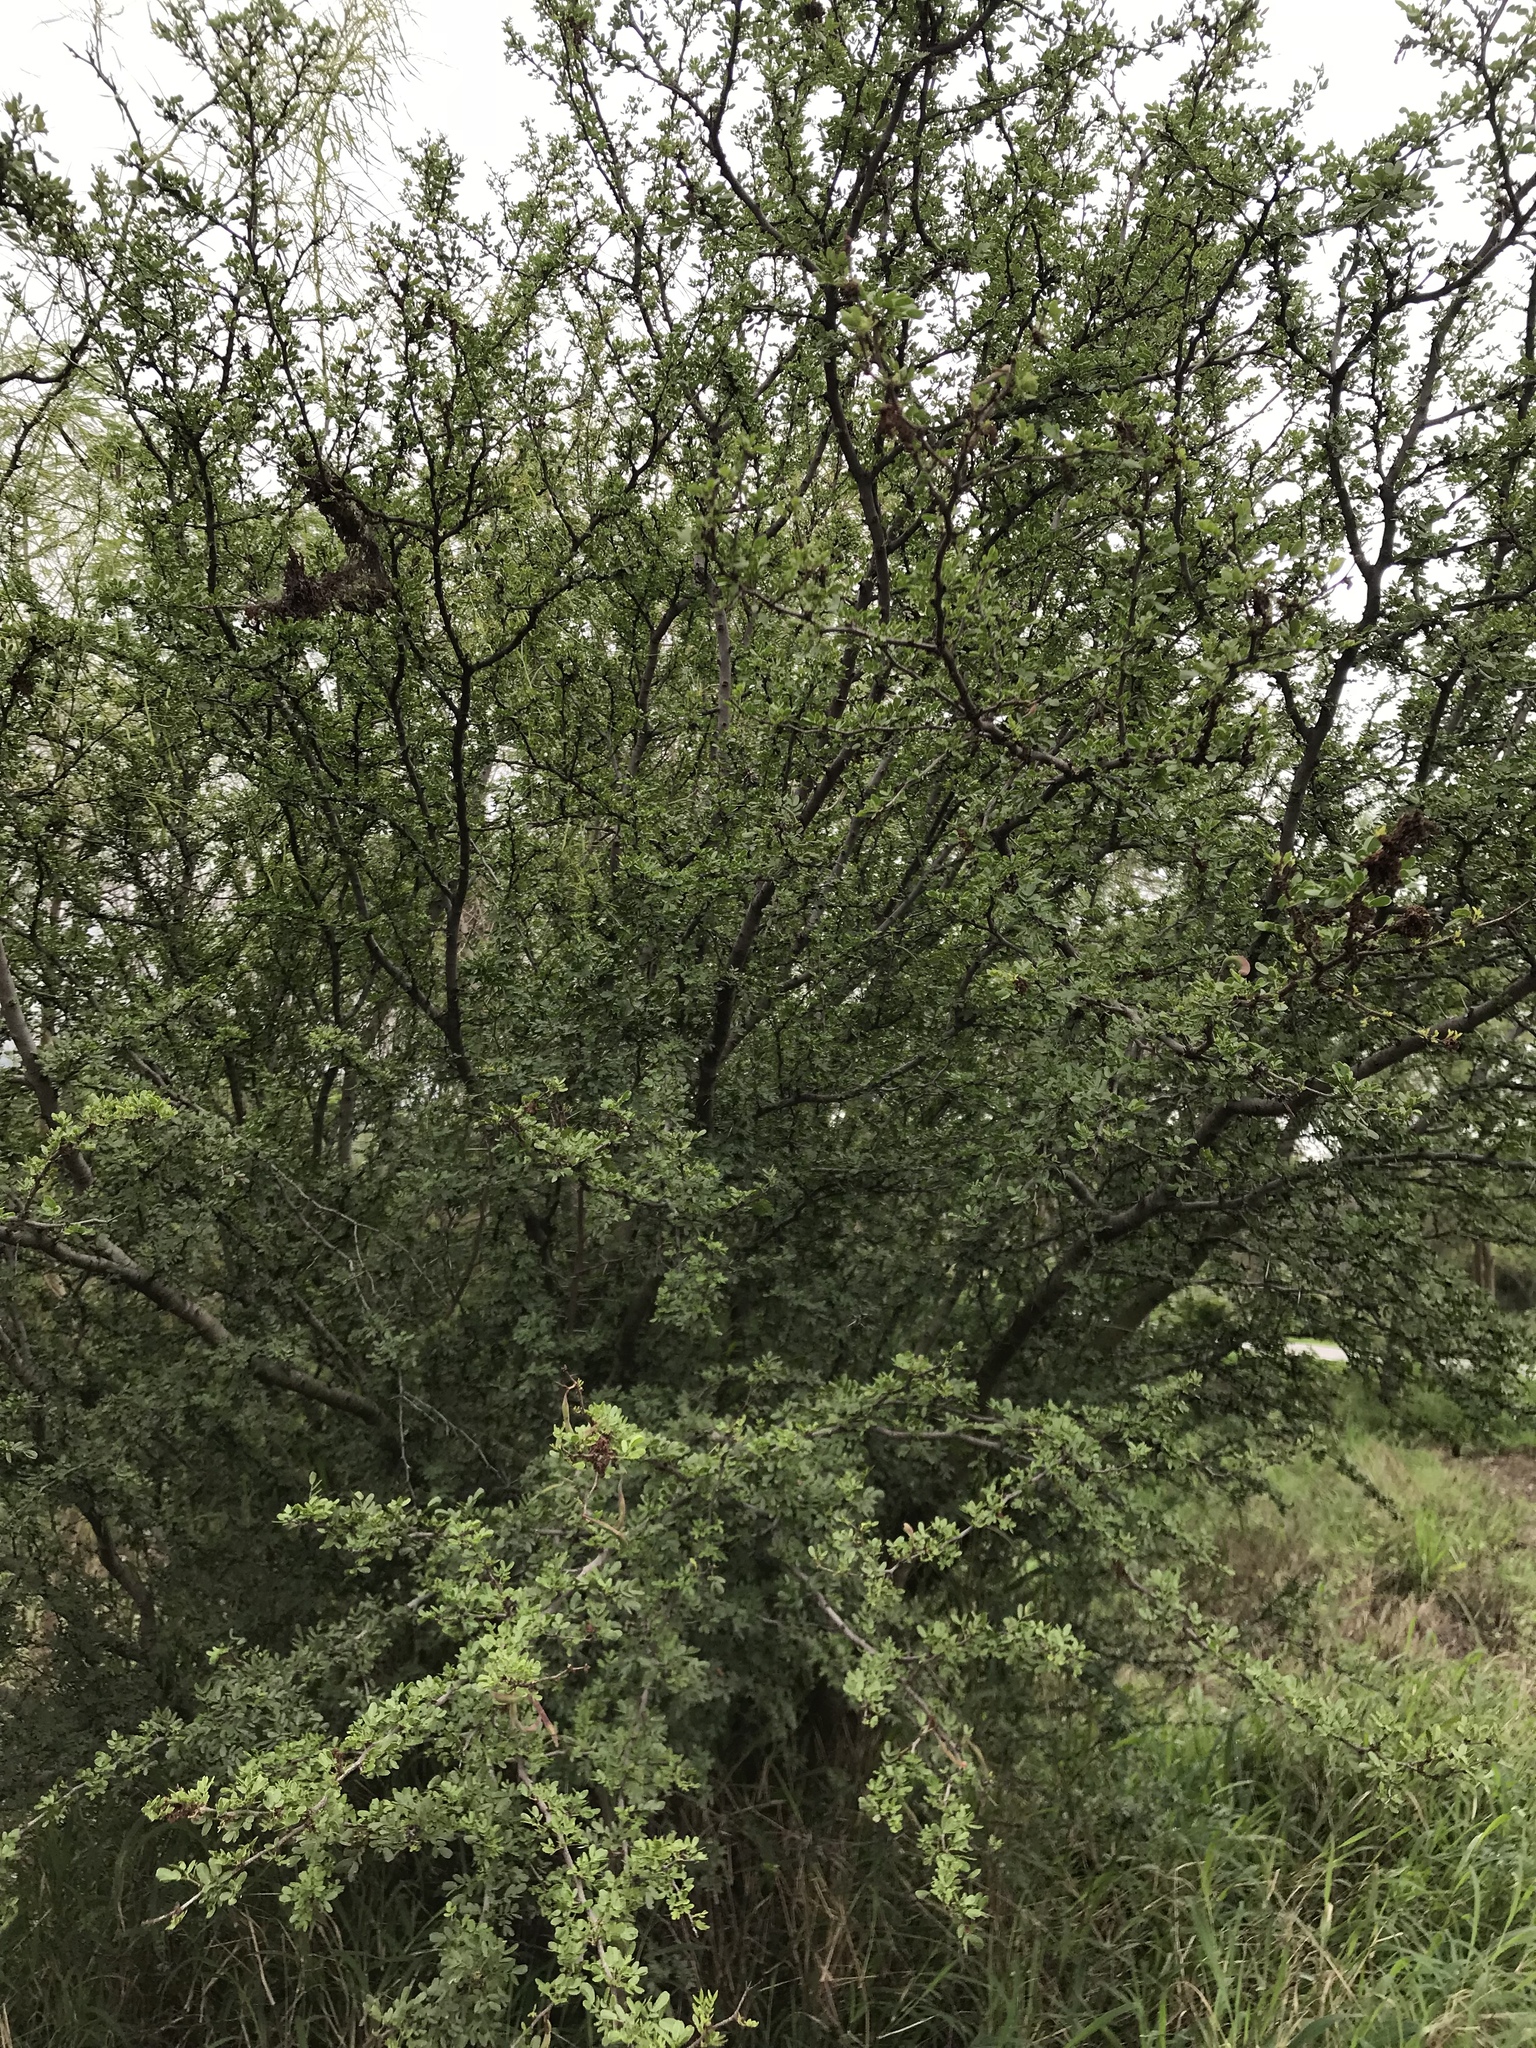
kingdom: Plantae
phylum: Tracheophyta
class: Magnoliopsida
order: Fabales
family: Fabaceae
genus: Vachellia
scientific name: Vachellia rigidula
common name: Blackbrush
